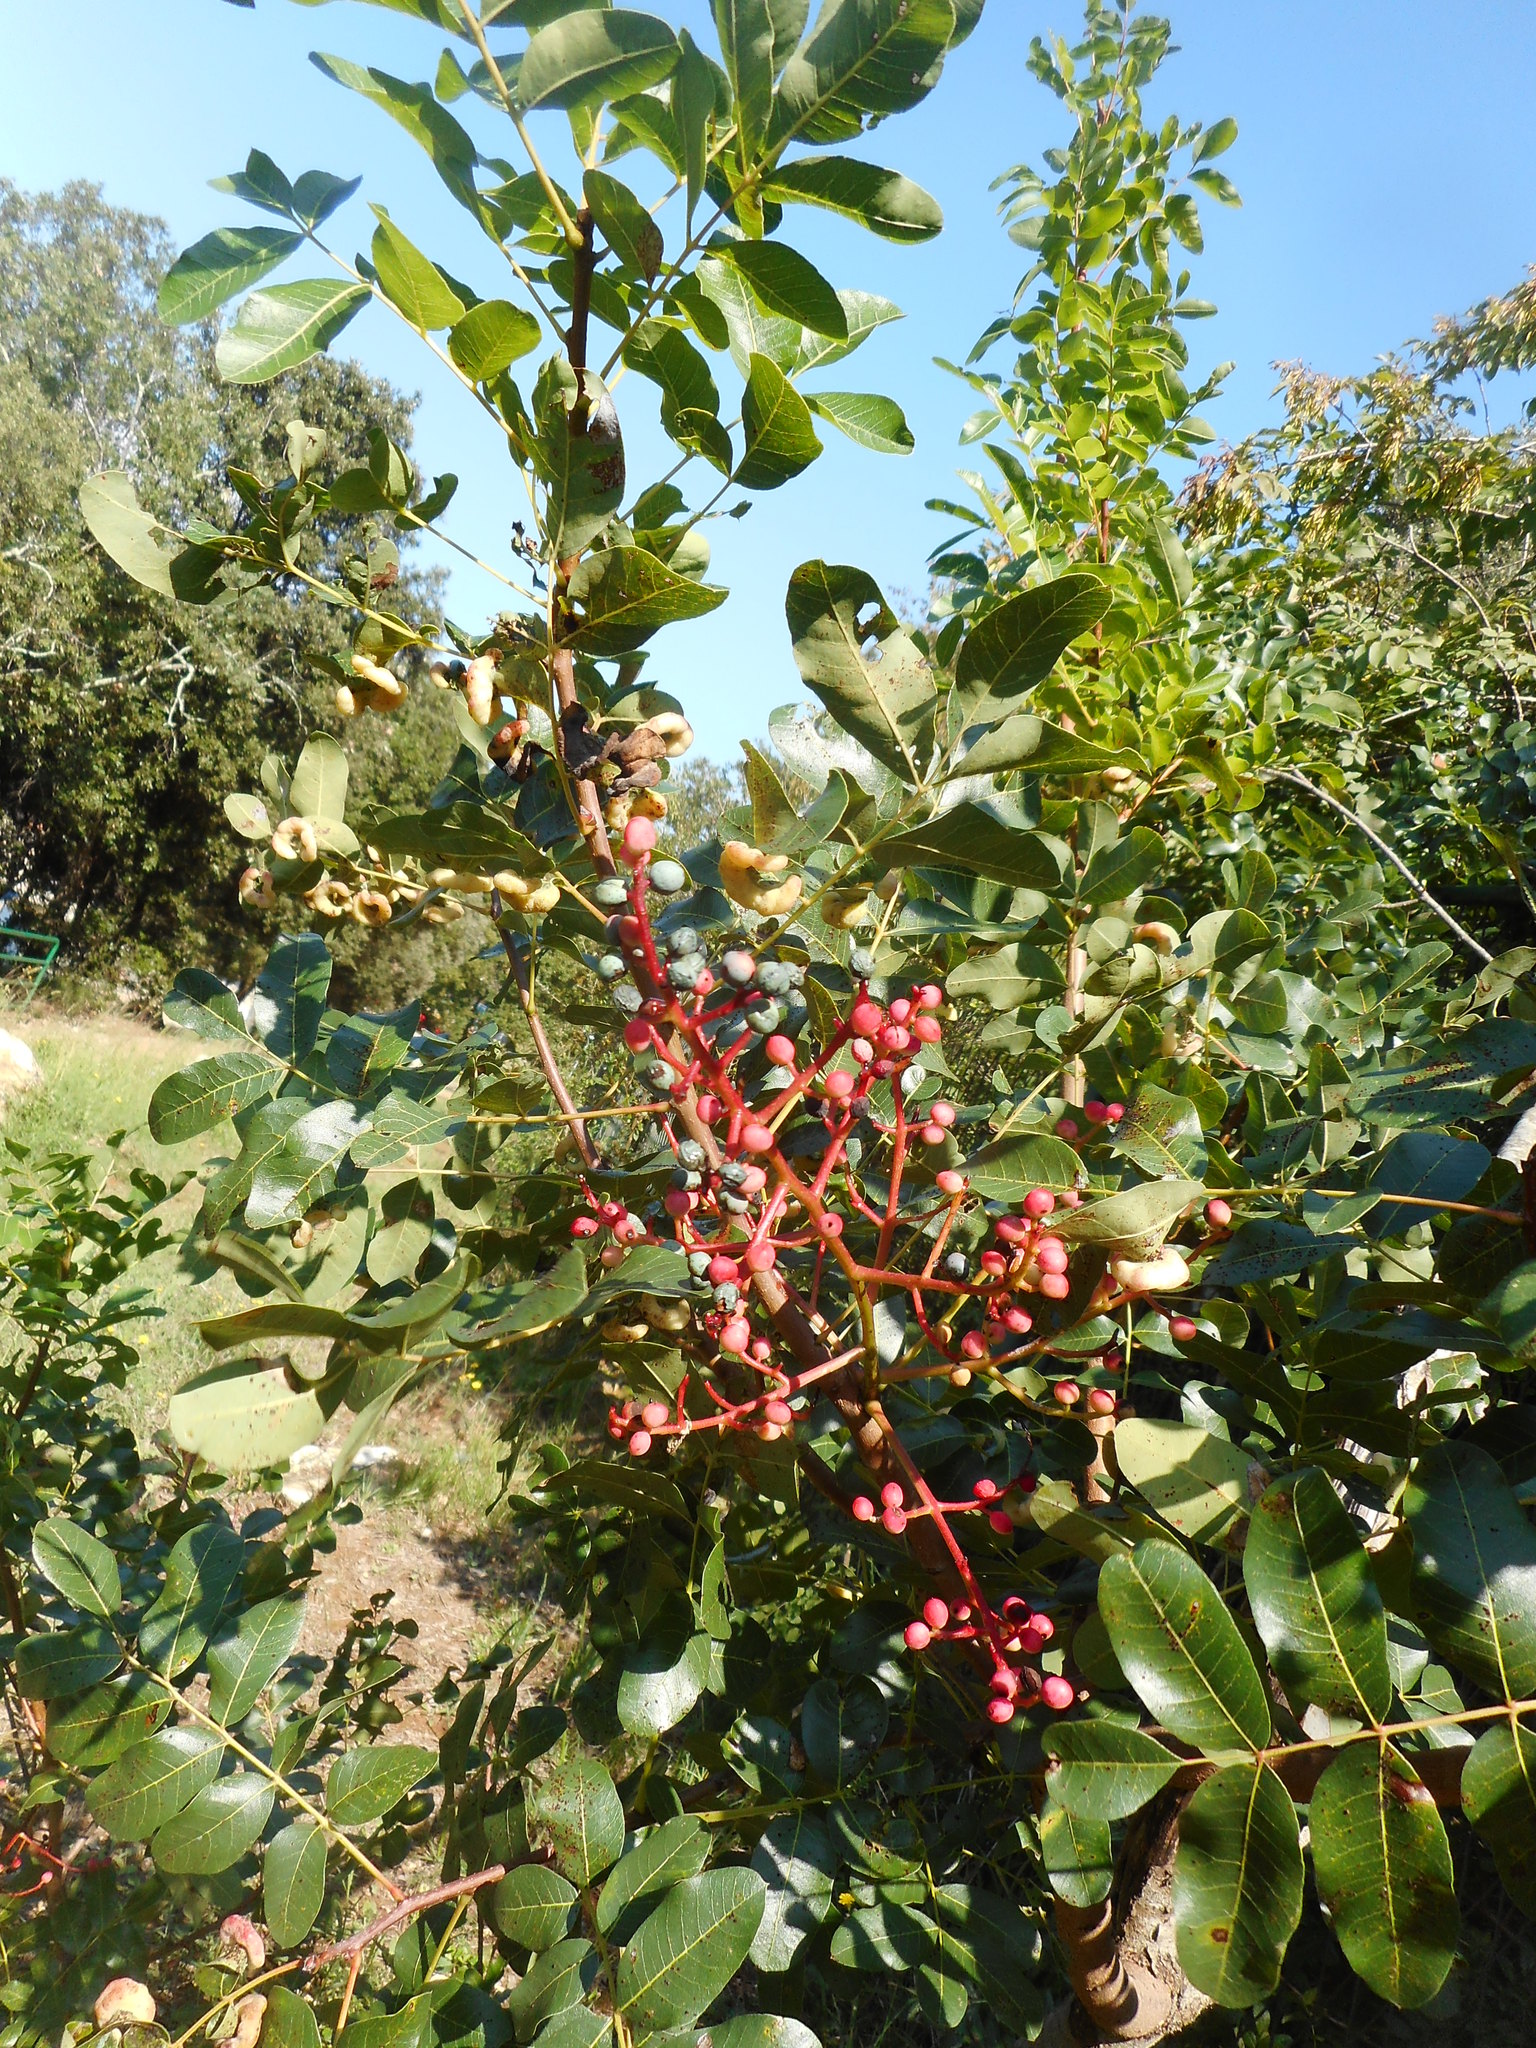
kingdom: Plantae
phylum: Tracheophyta
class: Magnoliopsida
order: Sapindales
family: Anacardiaceae
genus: Pistacia
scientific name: Pistacia terebinthus
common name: Terebinth
